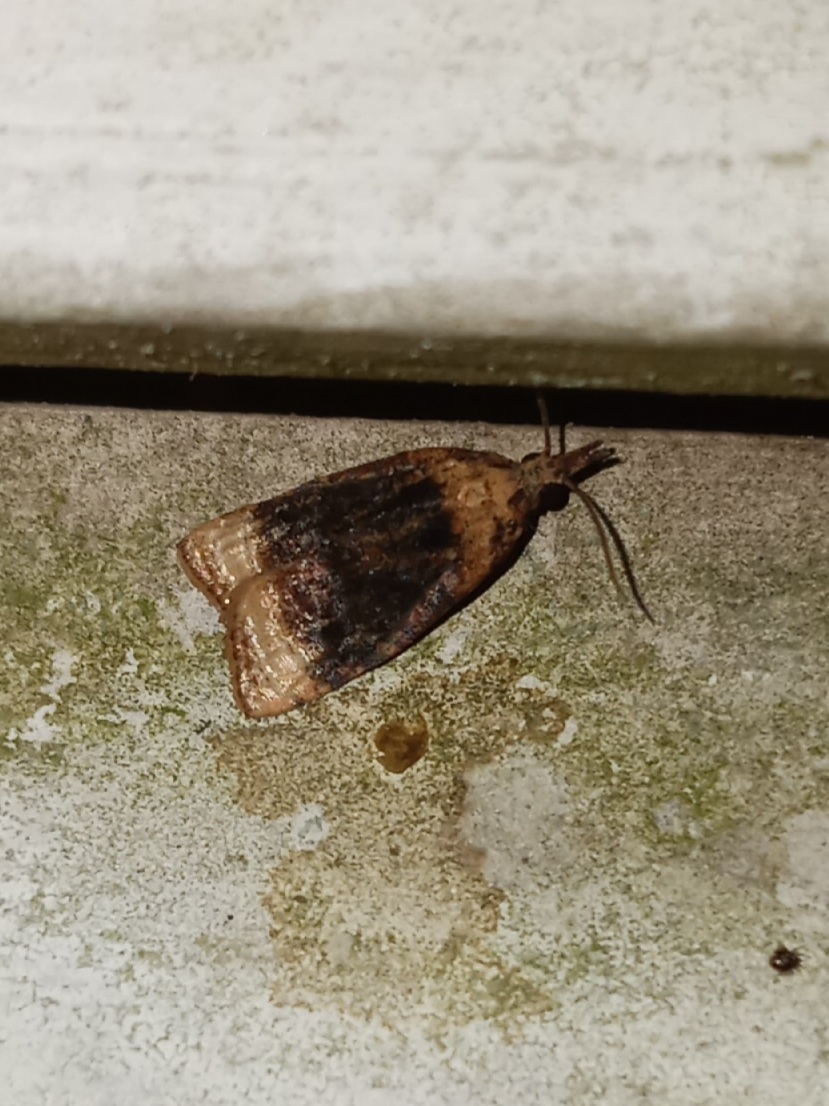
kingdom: Animalia
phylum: Arthropoda
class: Insecta
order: Lepidoptera
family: Tortricidae
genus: Platynota
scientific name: Platynota flavedana
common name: Black-shaded platynota moth
